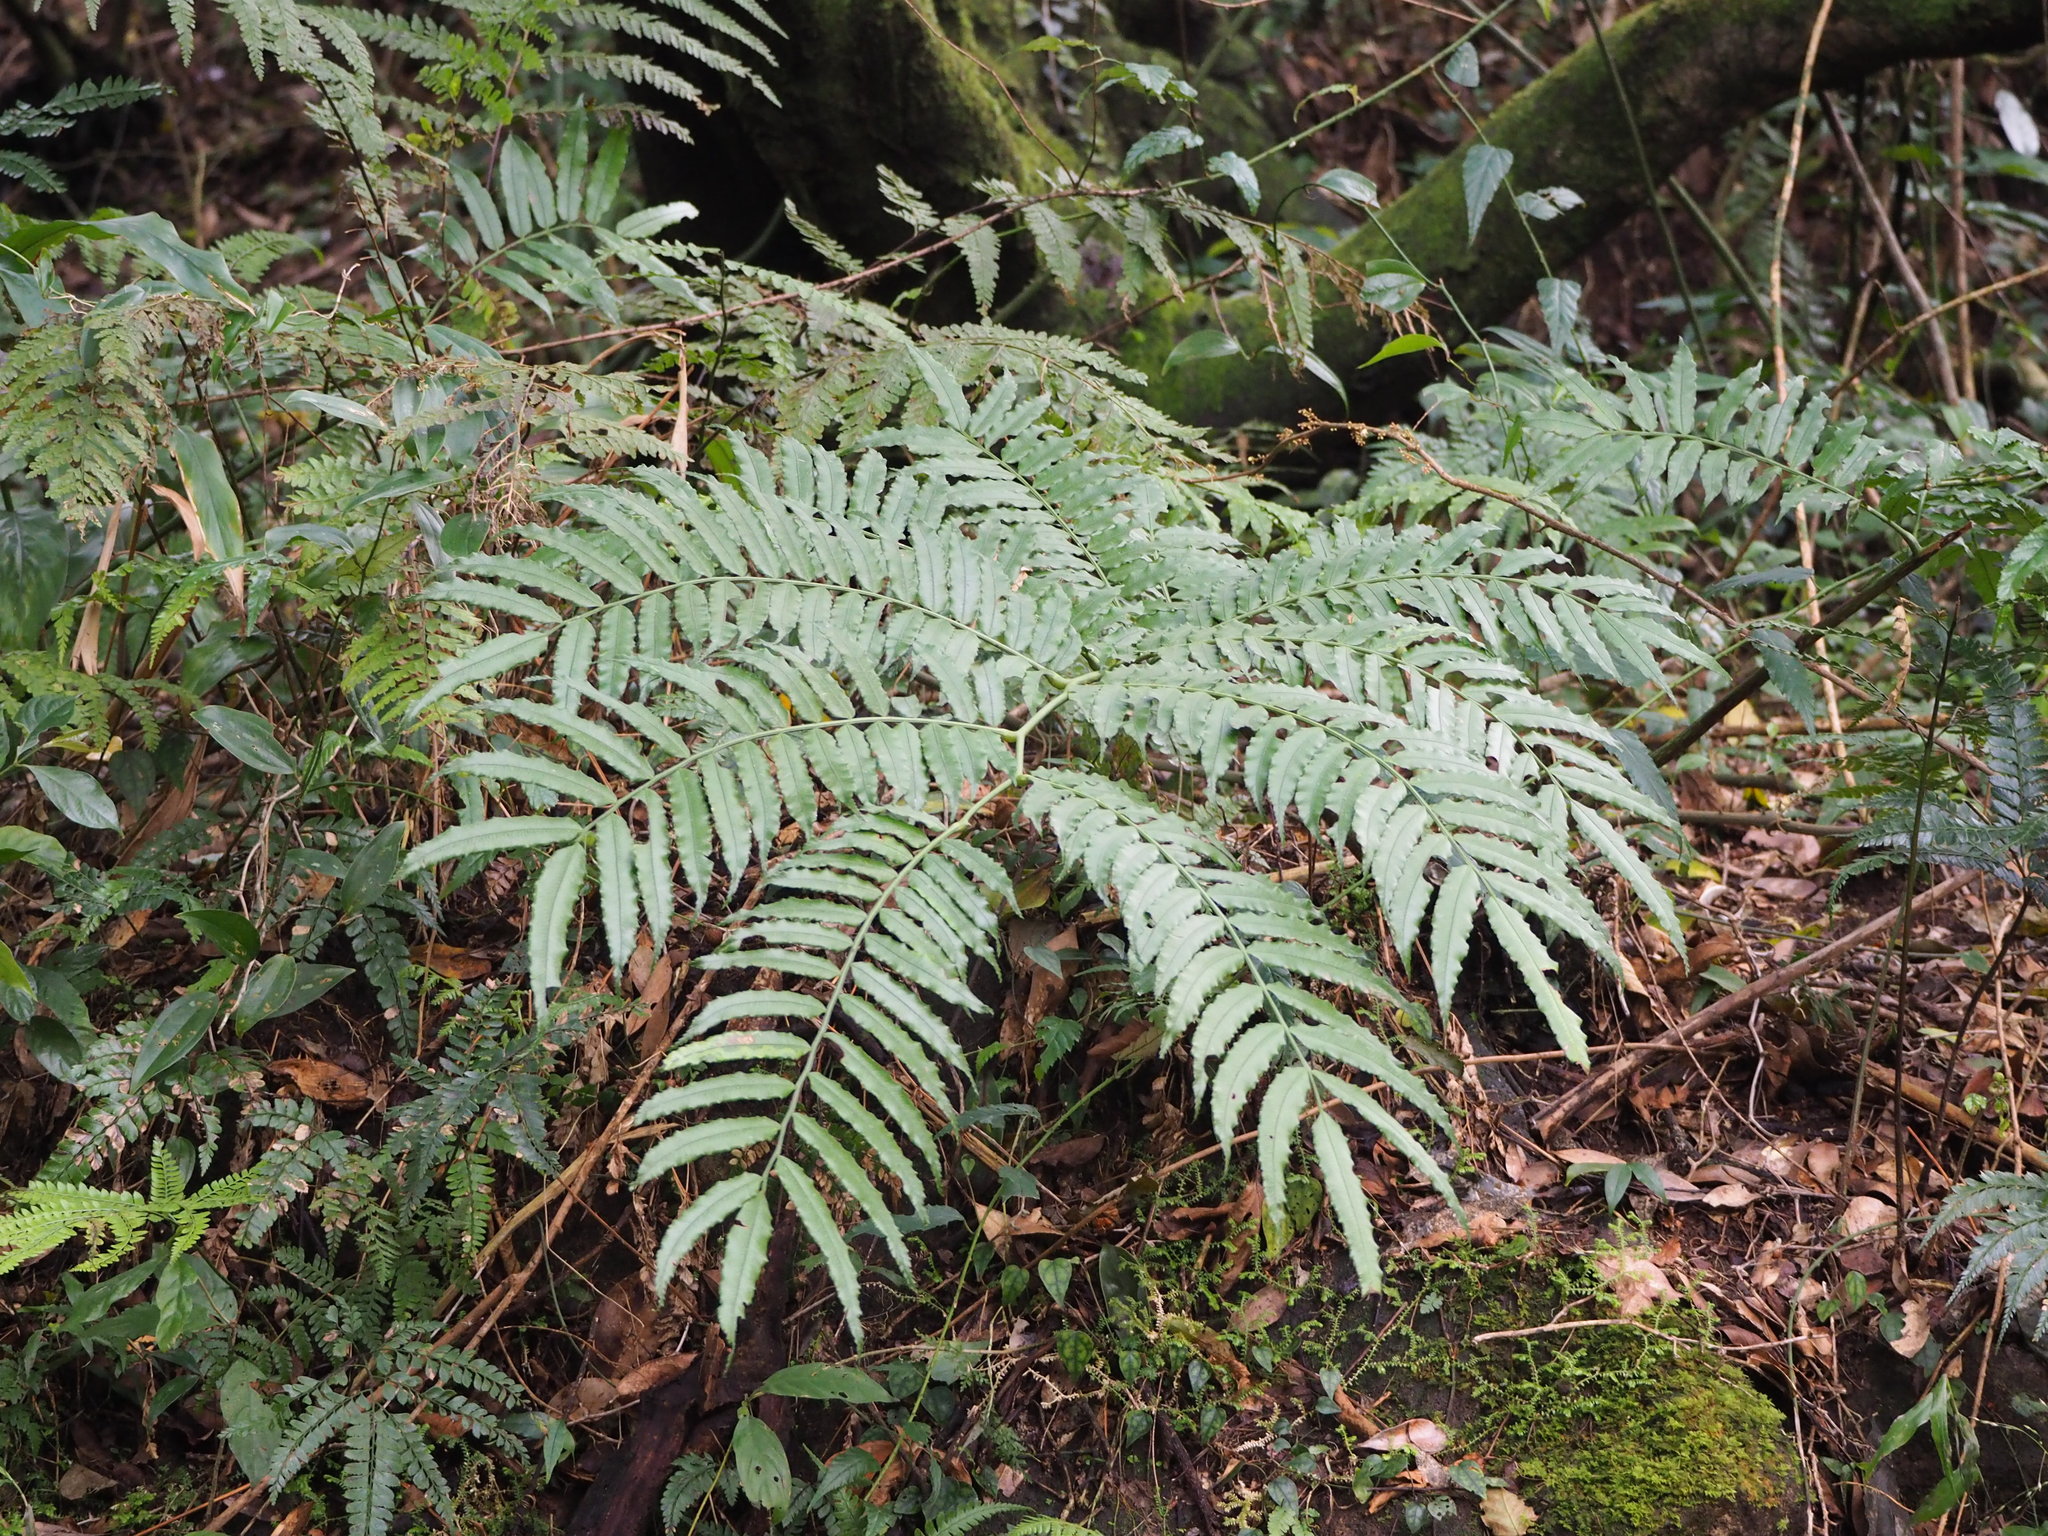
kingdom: Plantae
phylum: Tracheophyta
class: Polypodiopsida
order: Marattiales
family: Marattiaceae
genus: Angiopteris
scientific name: Angiopteris lygodiifolia
